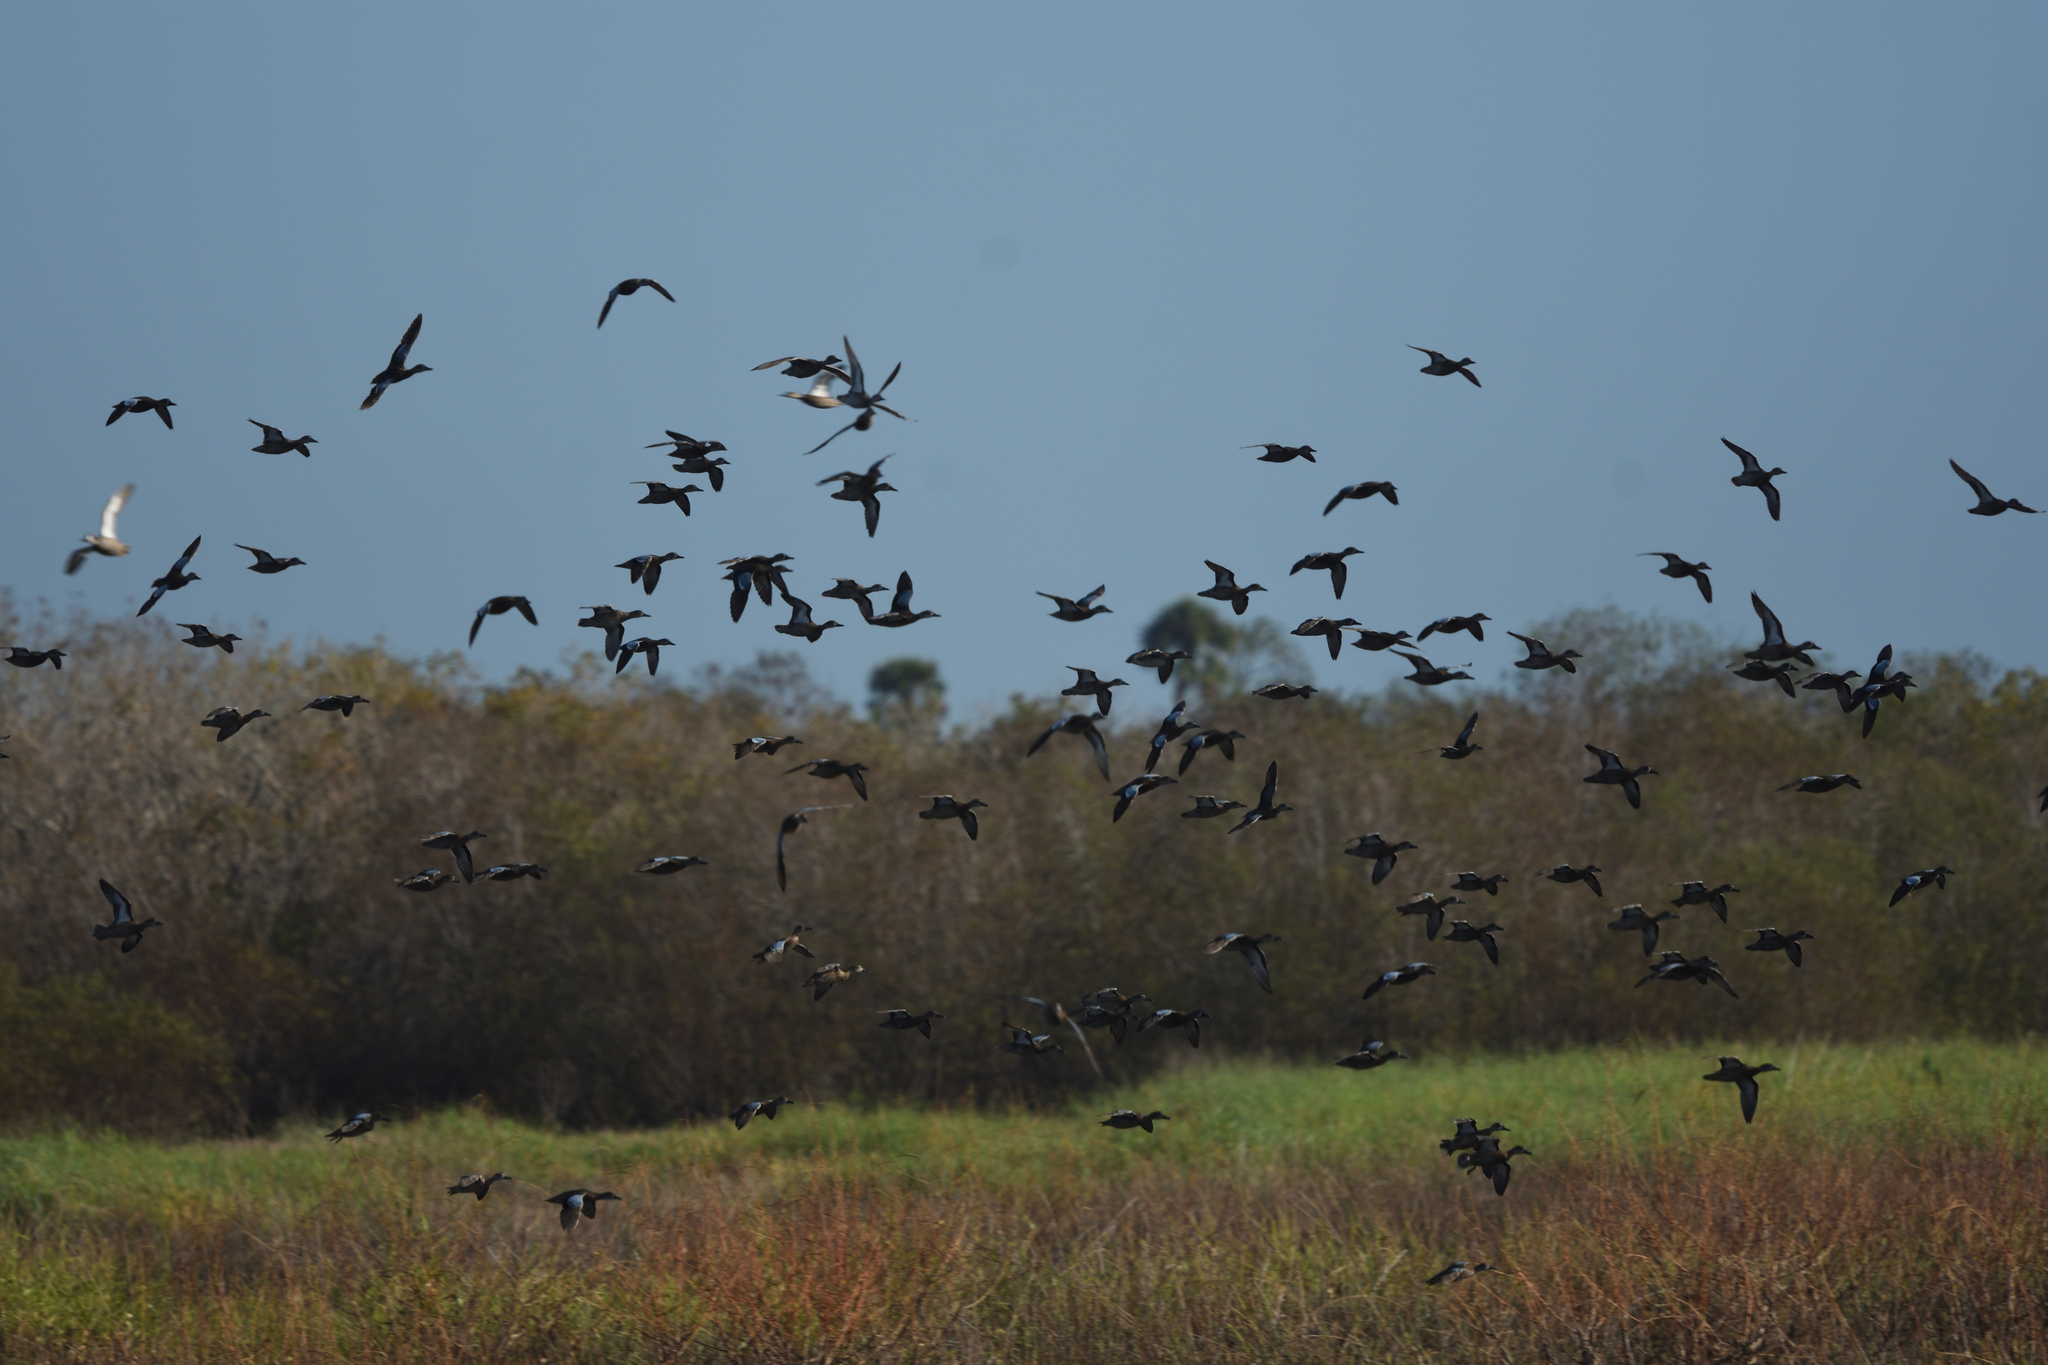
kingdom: Animalia
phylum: Chordata
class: Aves
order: Anseriformes
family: Anatidae
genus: Spatula
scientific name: Spatula discors
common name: Blue-winged teal
